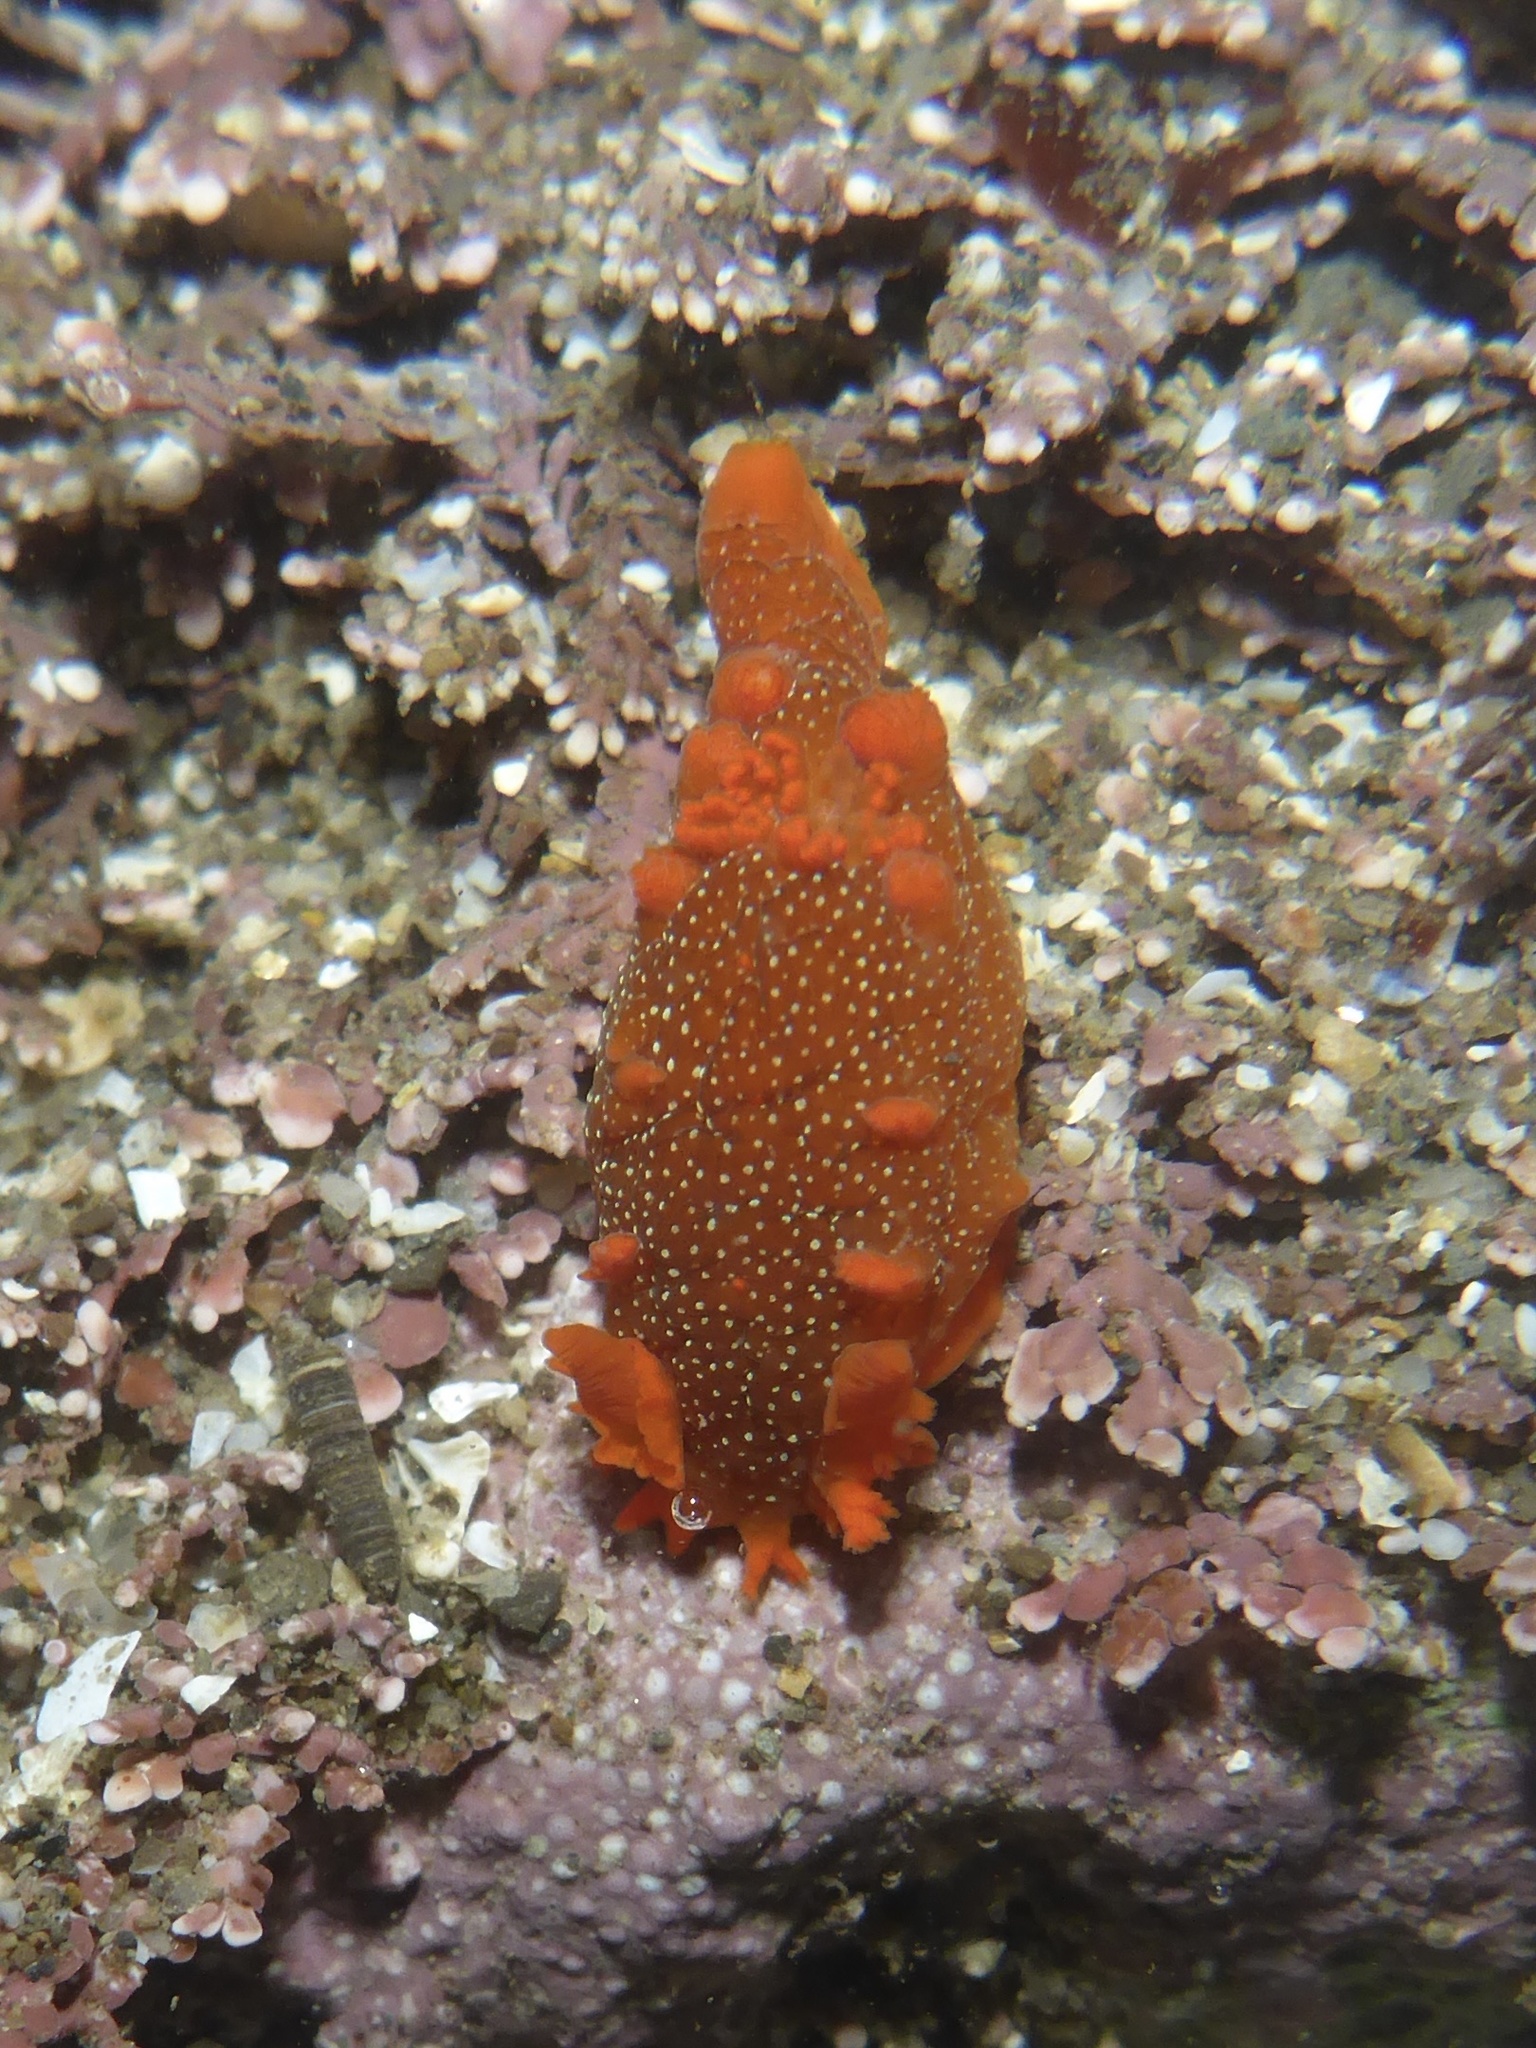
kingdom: Animalia
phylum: Mollusca
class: Gastropoda
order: Nudibranchia
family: Polyceridae
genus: Triopha
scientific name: Triopha maculata
